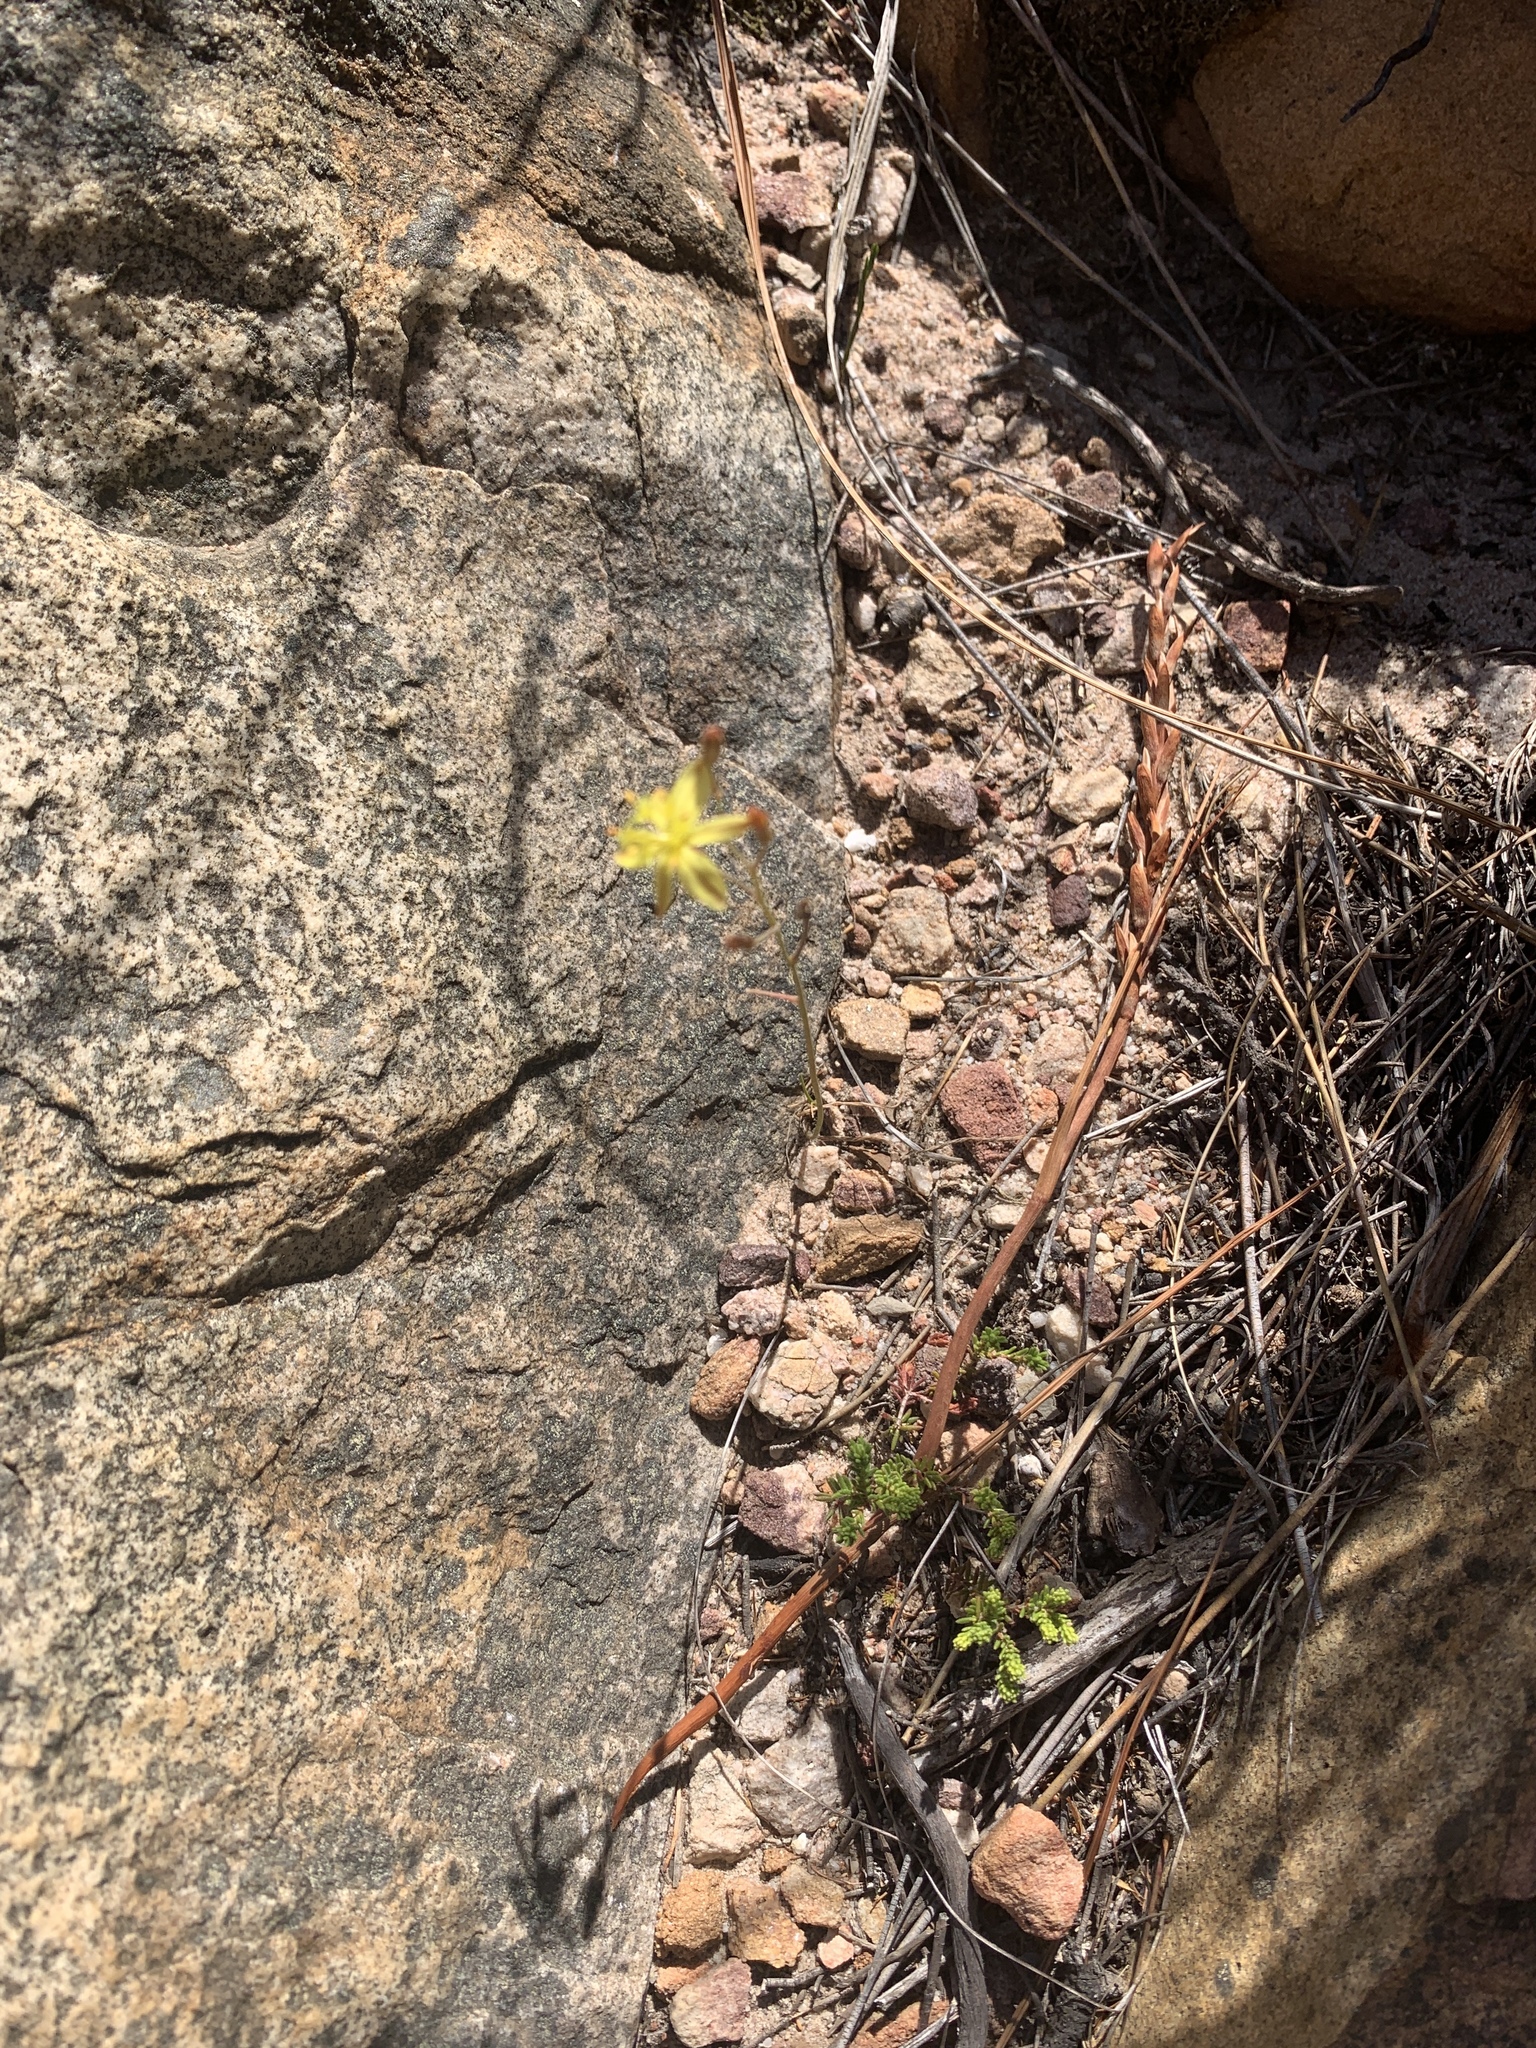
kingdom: Plantae
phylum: Tracheophyta
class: Liliopsida
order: Asparagales
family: Asphodelaceae
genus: Bulbine
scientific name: Bulbine favosa
